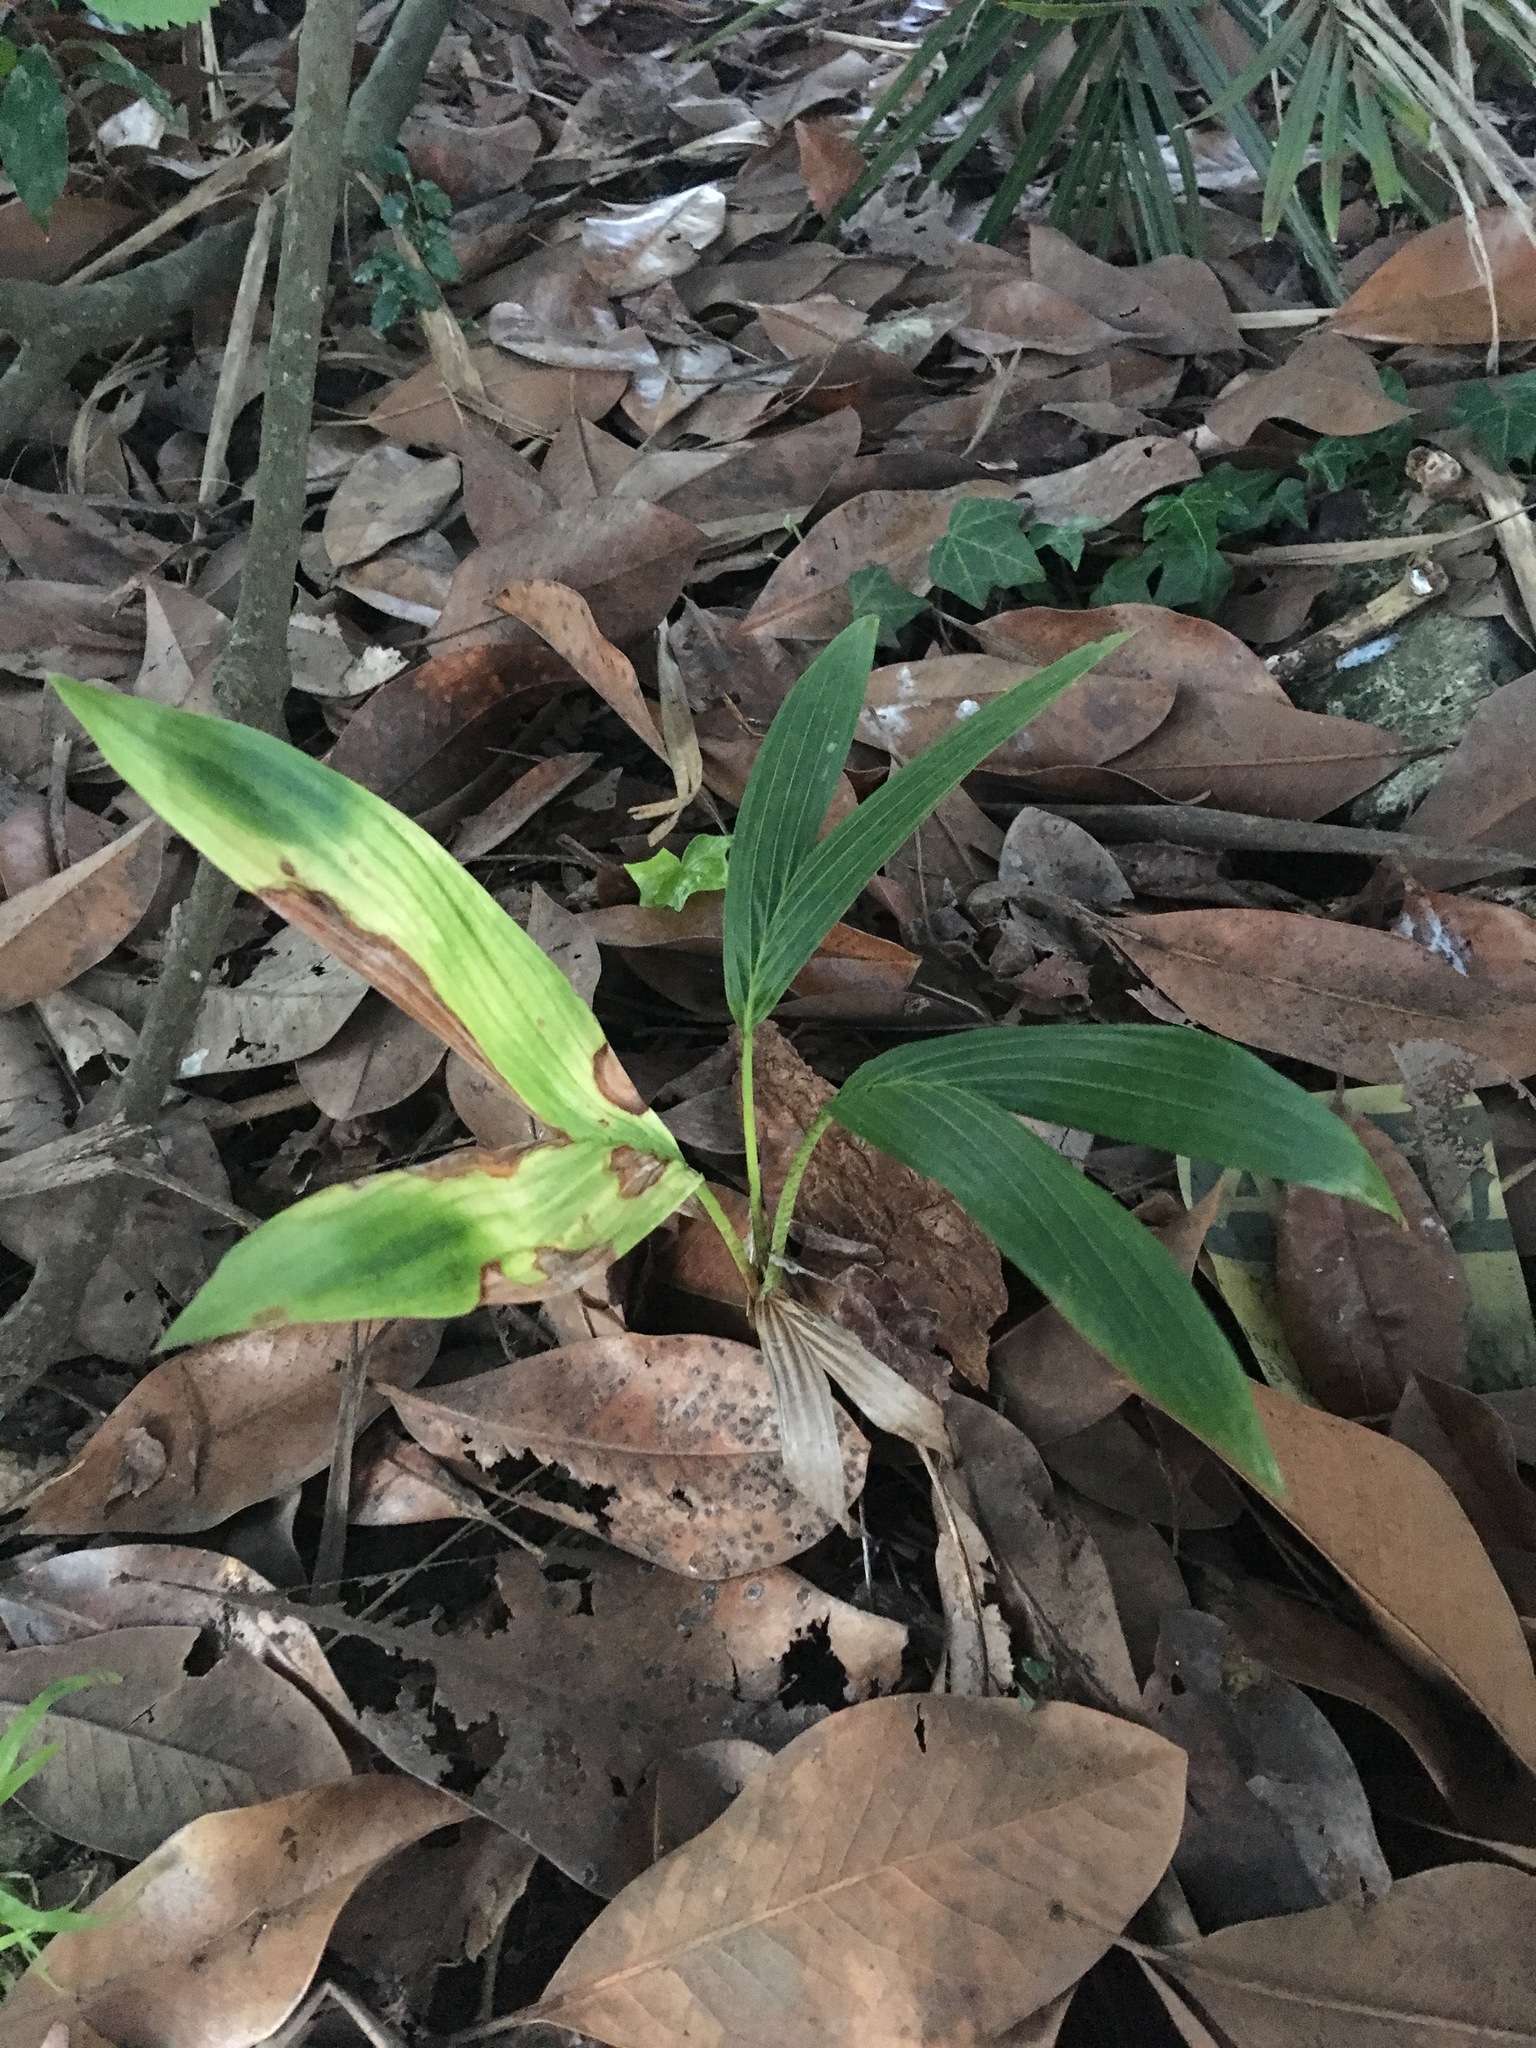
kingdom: Plantae
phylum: Tracheophyta
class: Liliopsida
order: Arecales
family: Arecaceae
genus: Archontophoenix
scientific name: Archontophoenix cunninghamiana
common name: Piccabeen bangalow palm
